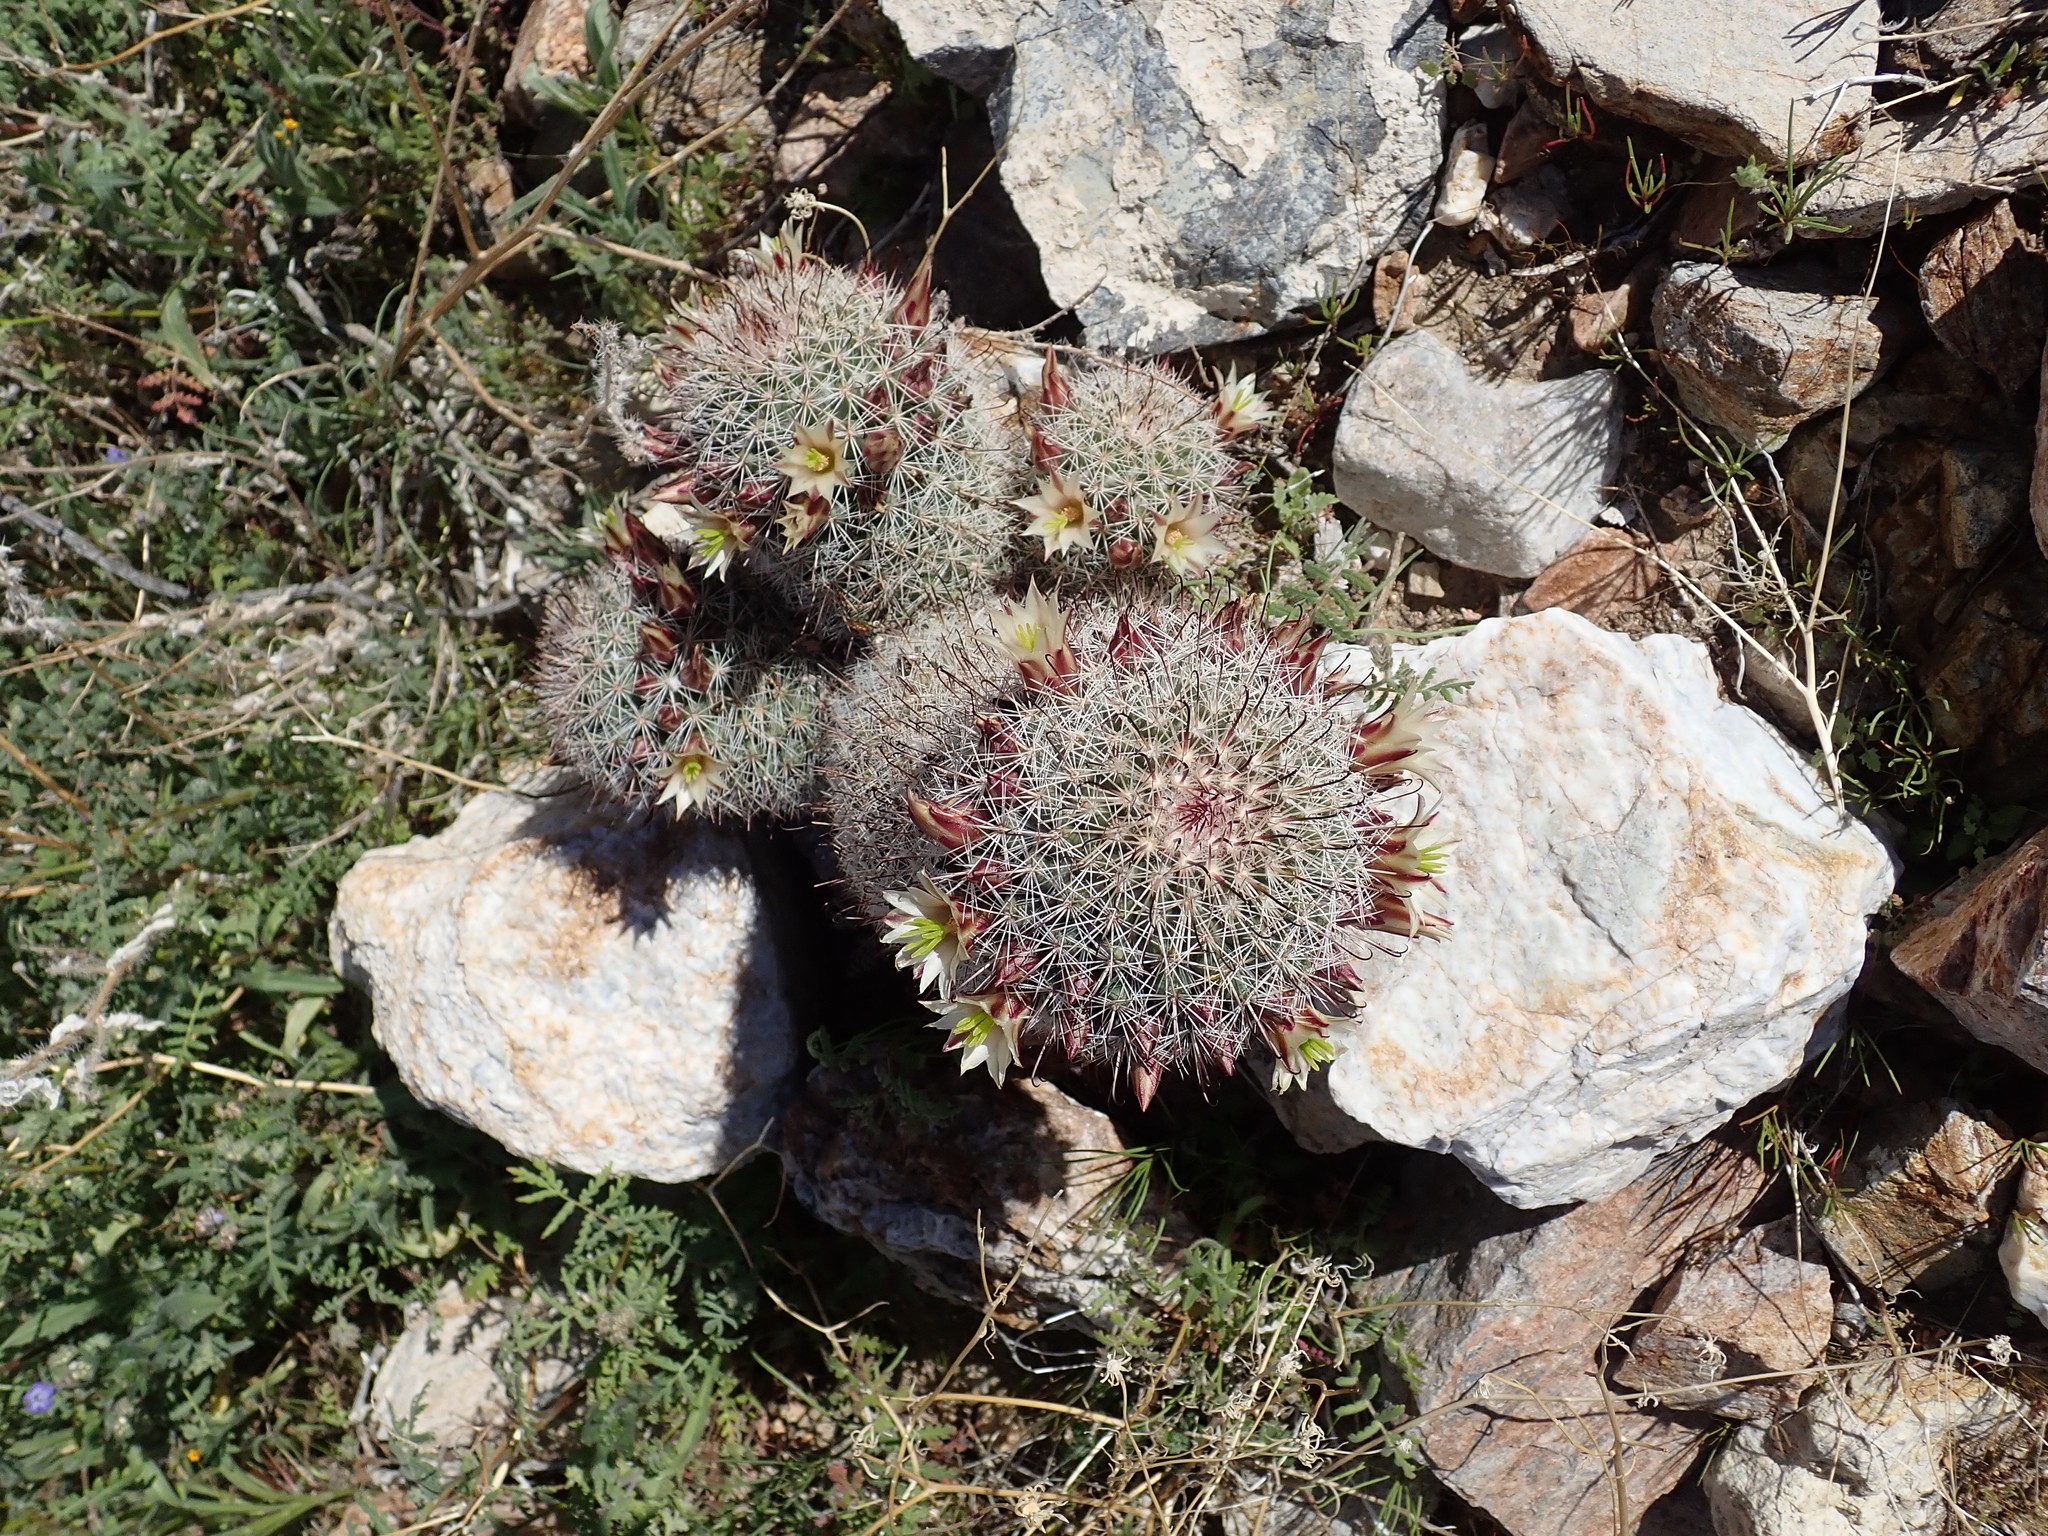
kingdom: Plantae
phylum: Tracheophyta
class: Magnoliopsida
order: Caryophyllales
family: Cactaceae
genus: Cochemiea
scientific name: Cochemiea dioica
